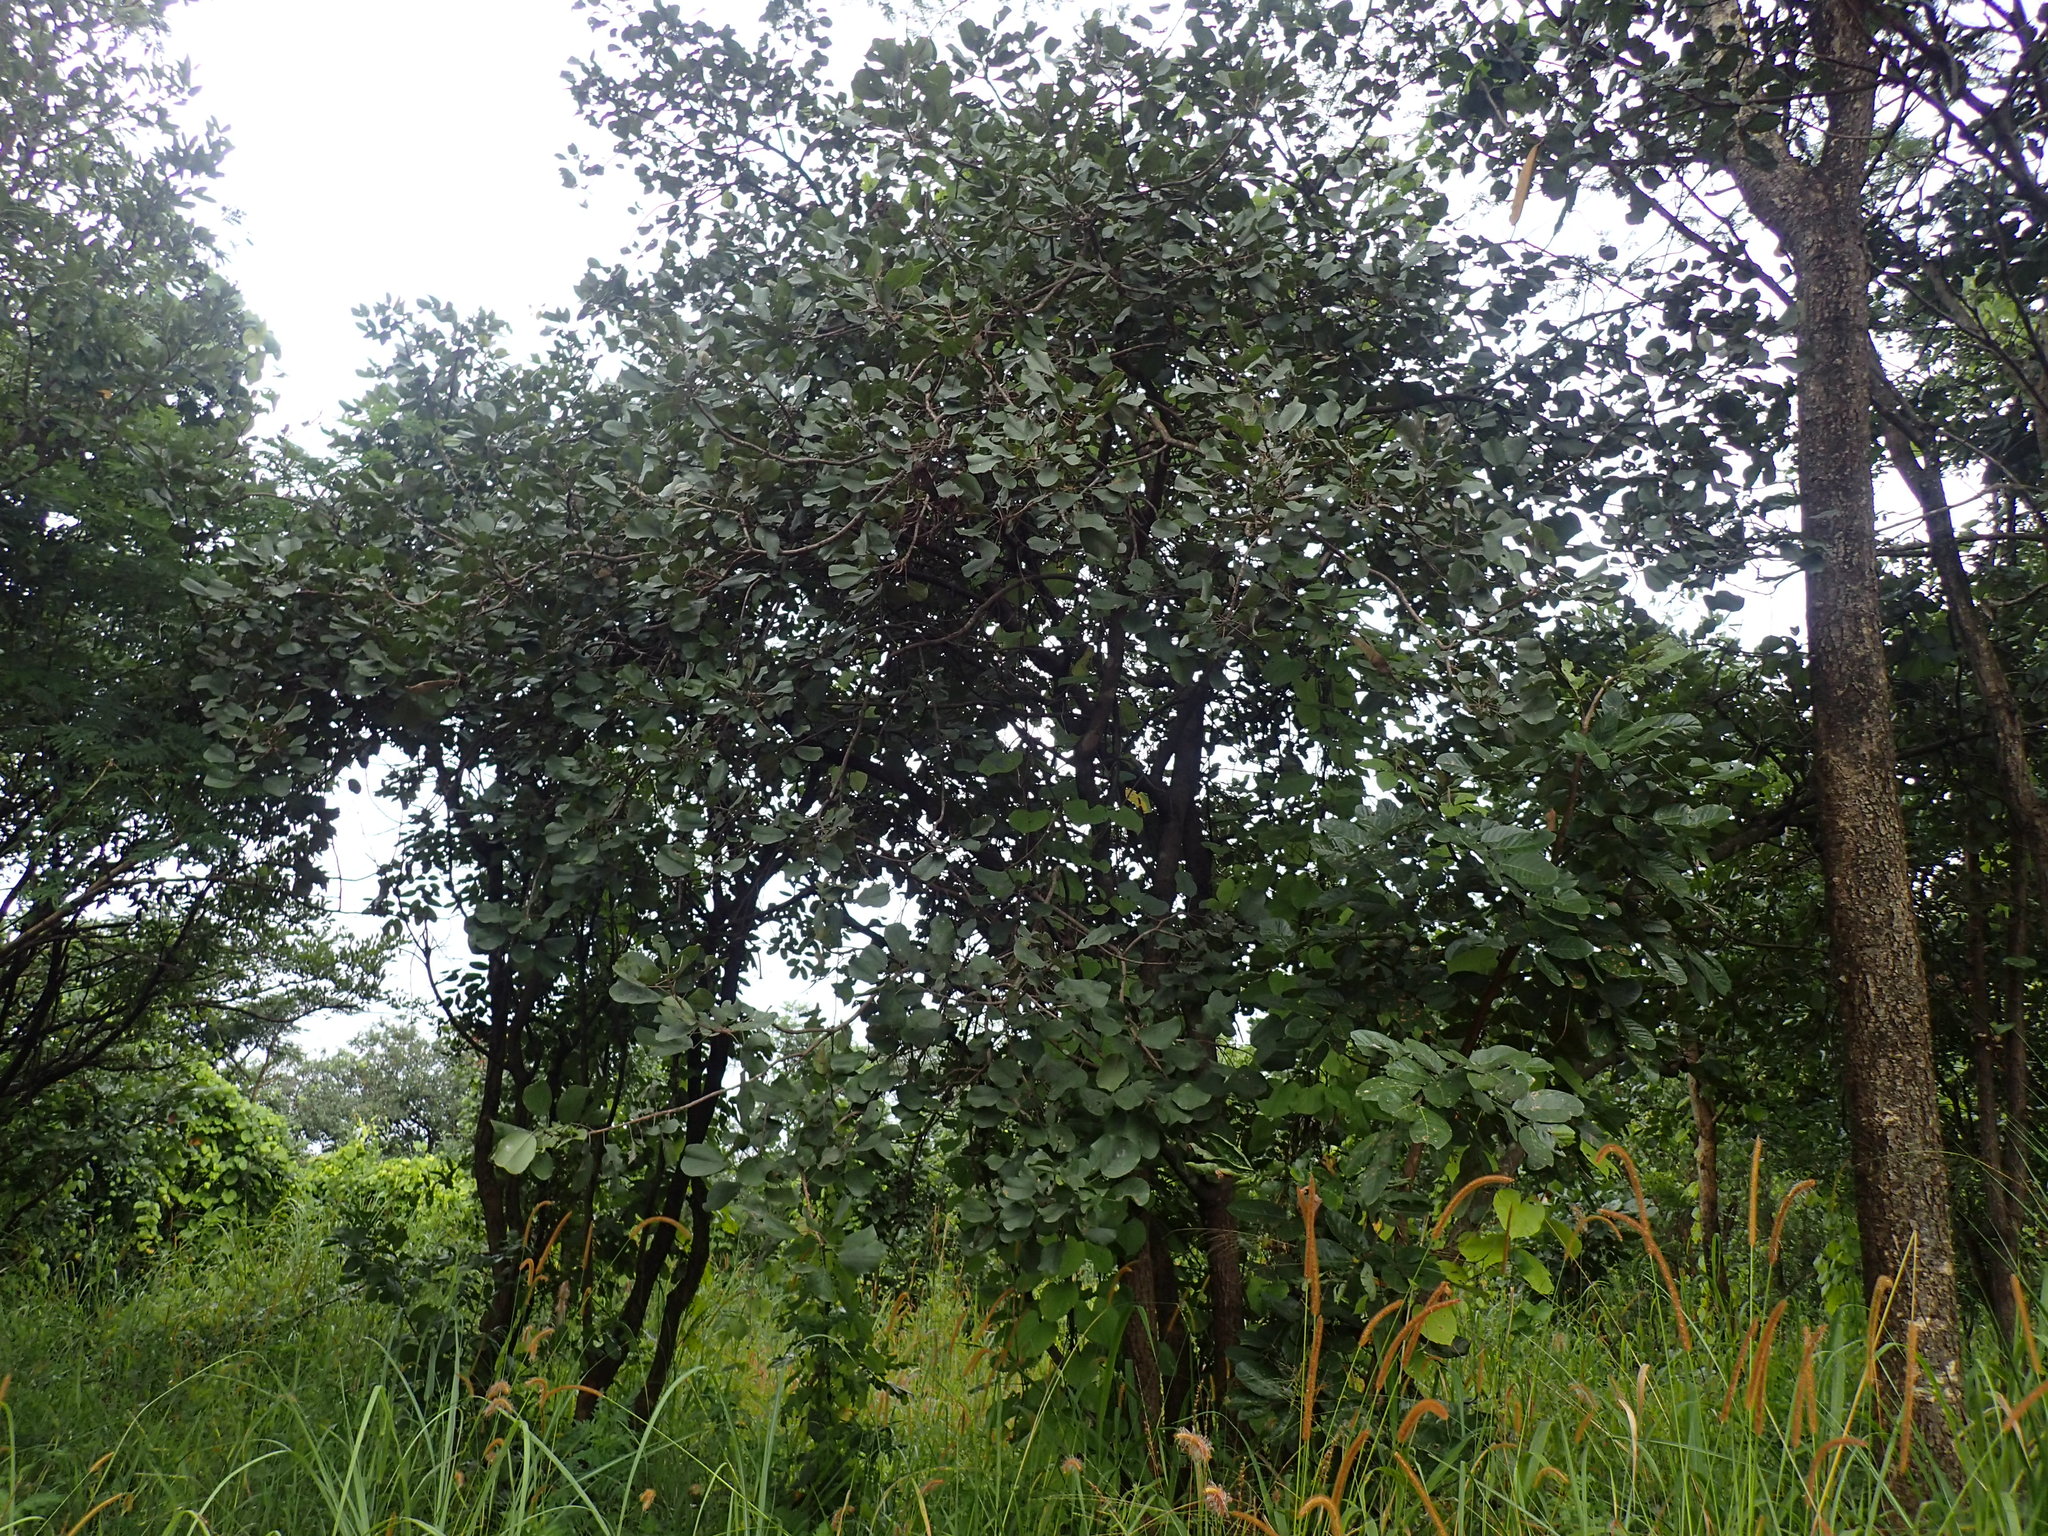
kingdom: Plantae
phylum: Tracheophyta
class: Magnoliopsida
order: Fabales
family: Fabaceae
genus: Baphia
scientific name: Baphia bequaertii
